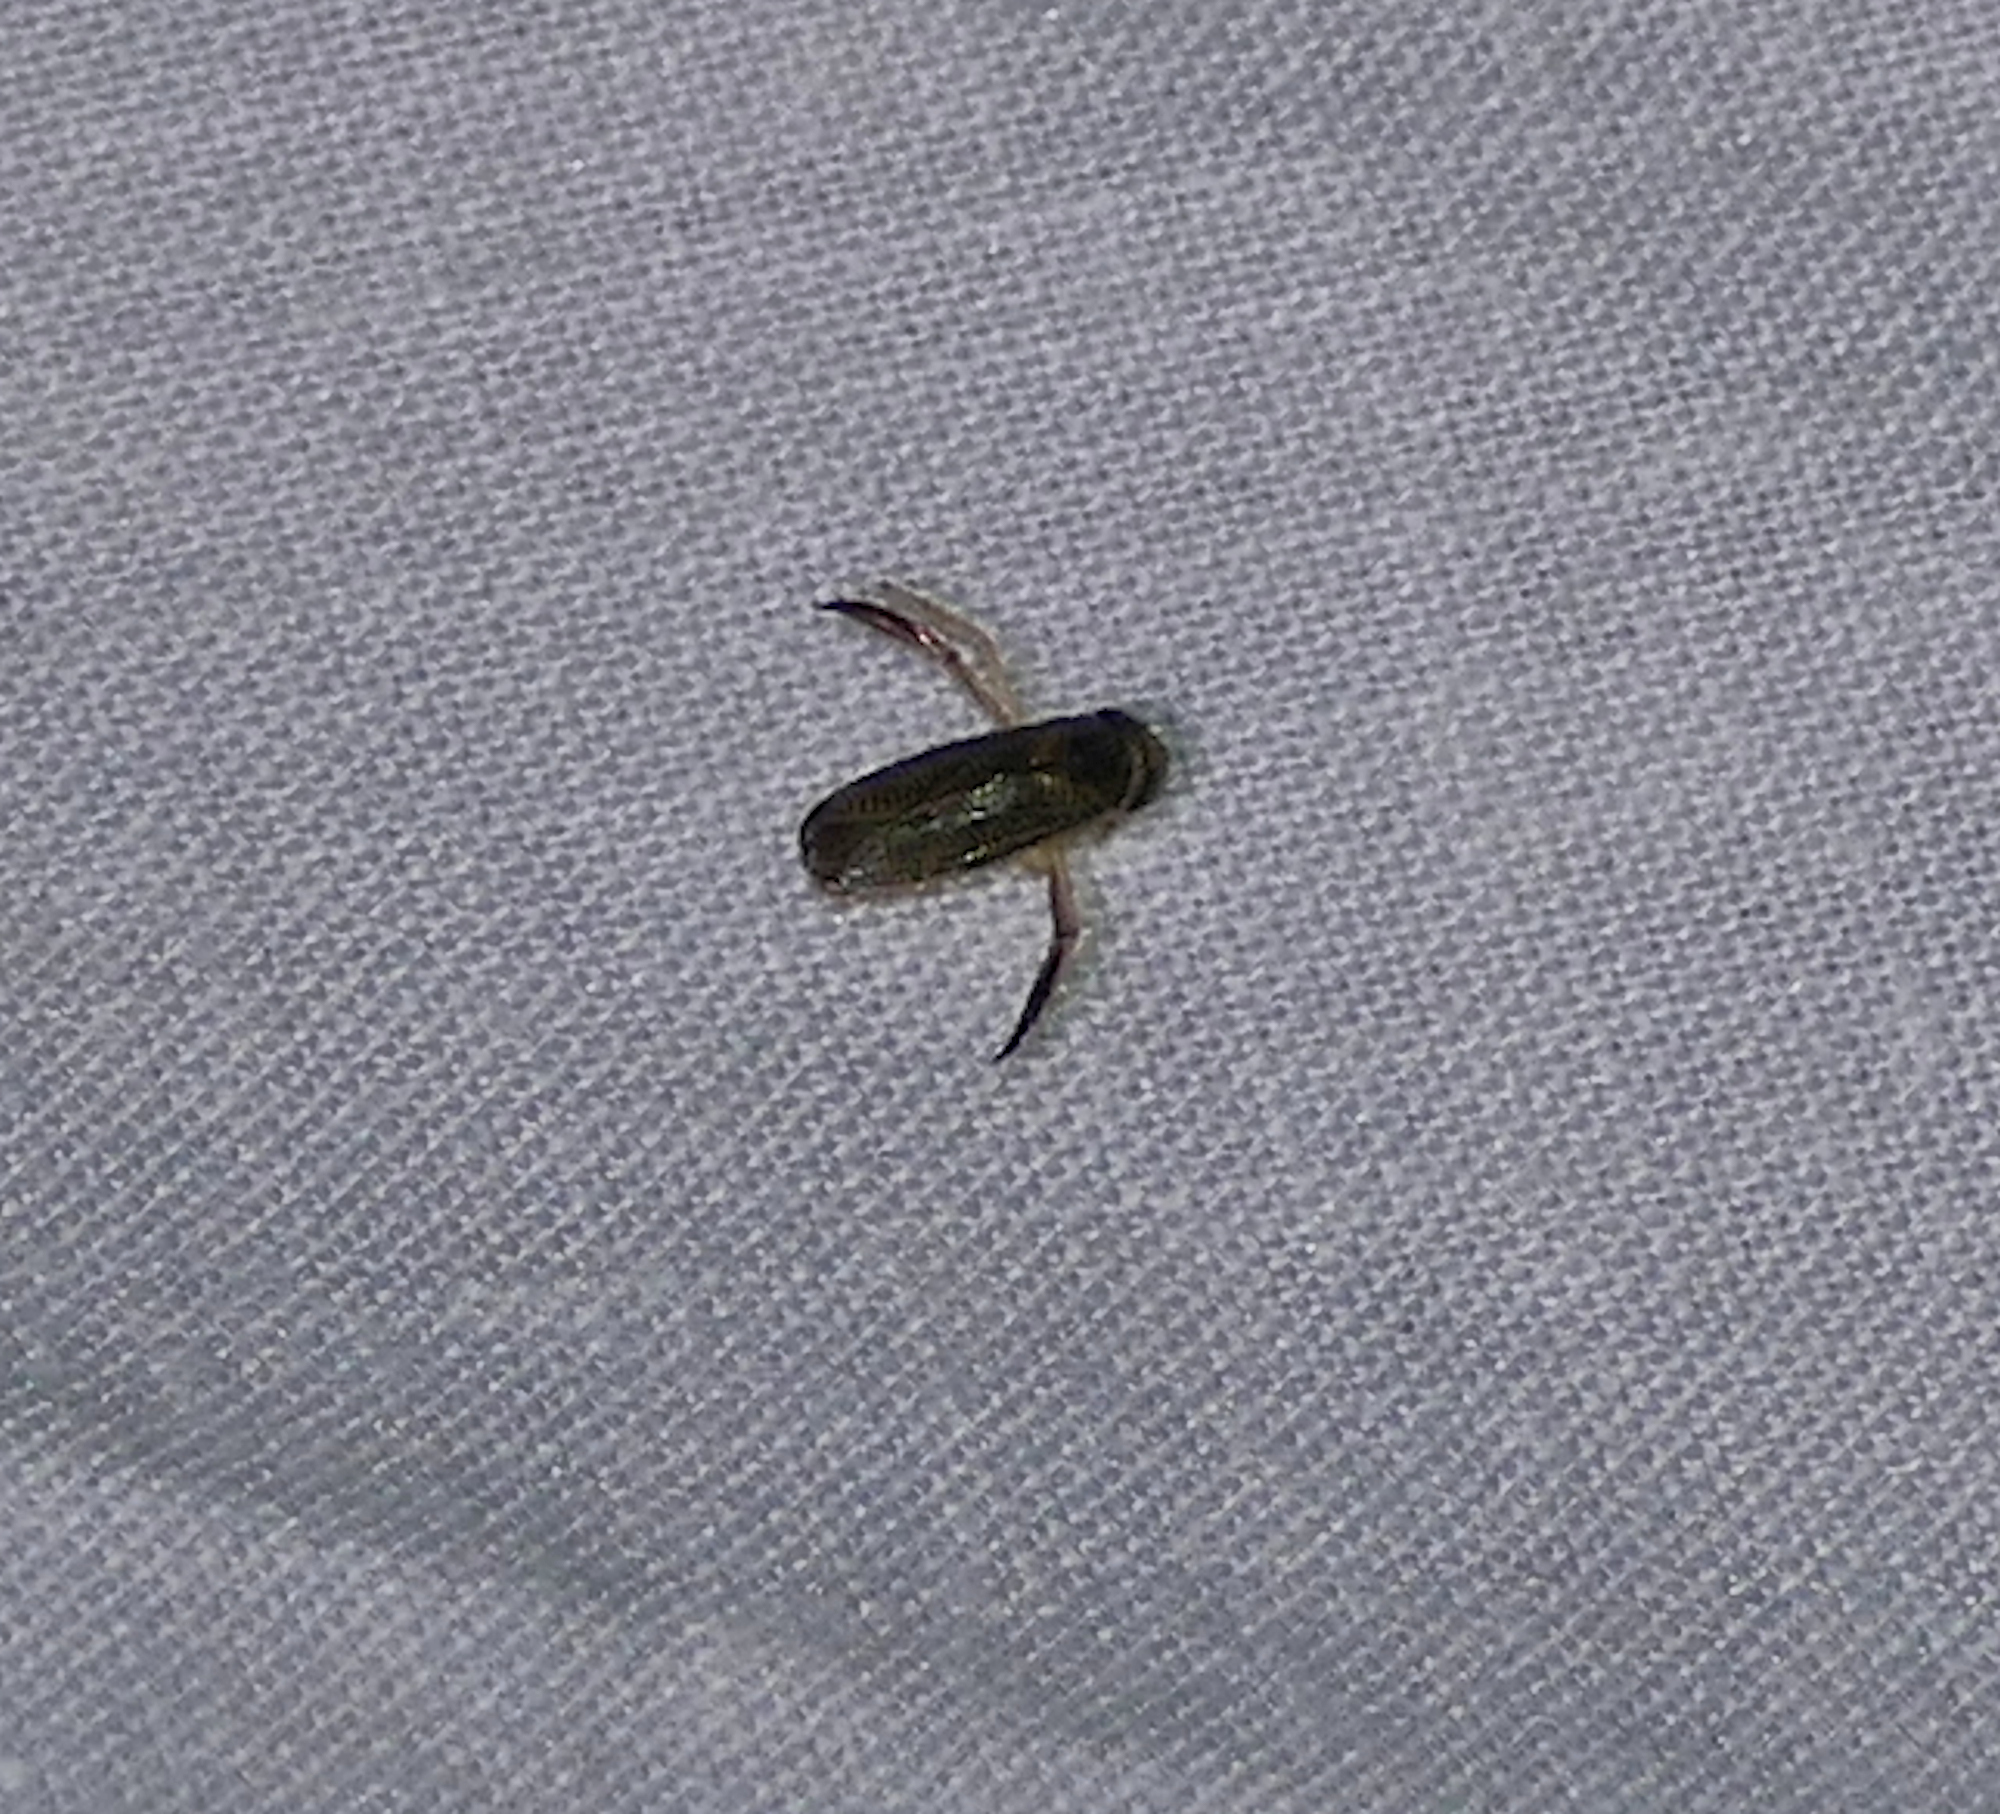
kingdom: Animalia
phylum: Arthropoda
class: Insecta
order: Hemiptera
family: Corixidae
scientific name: Corixidae
